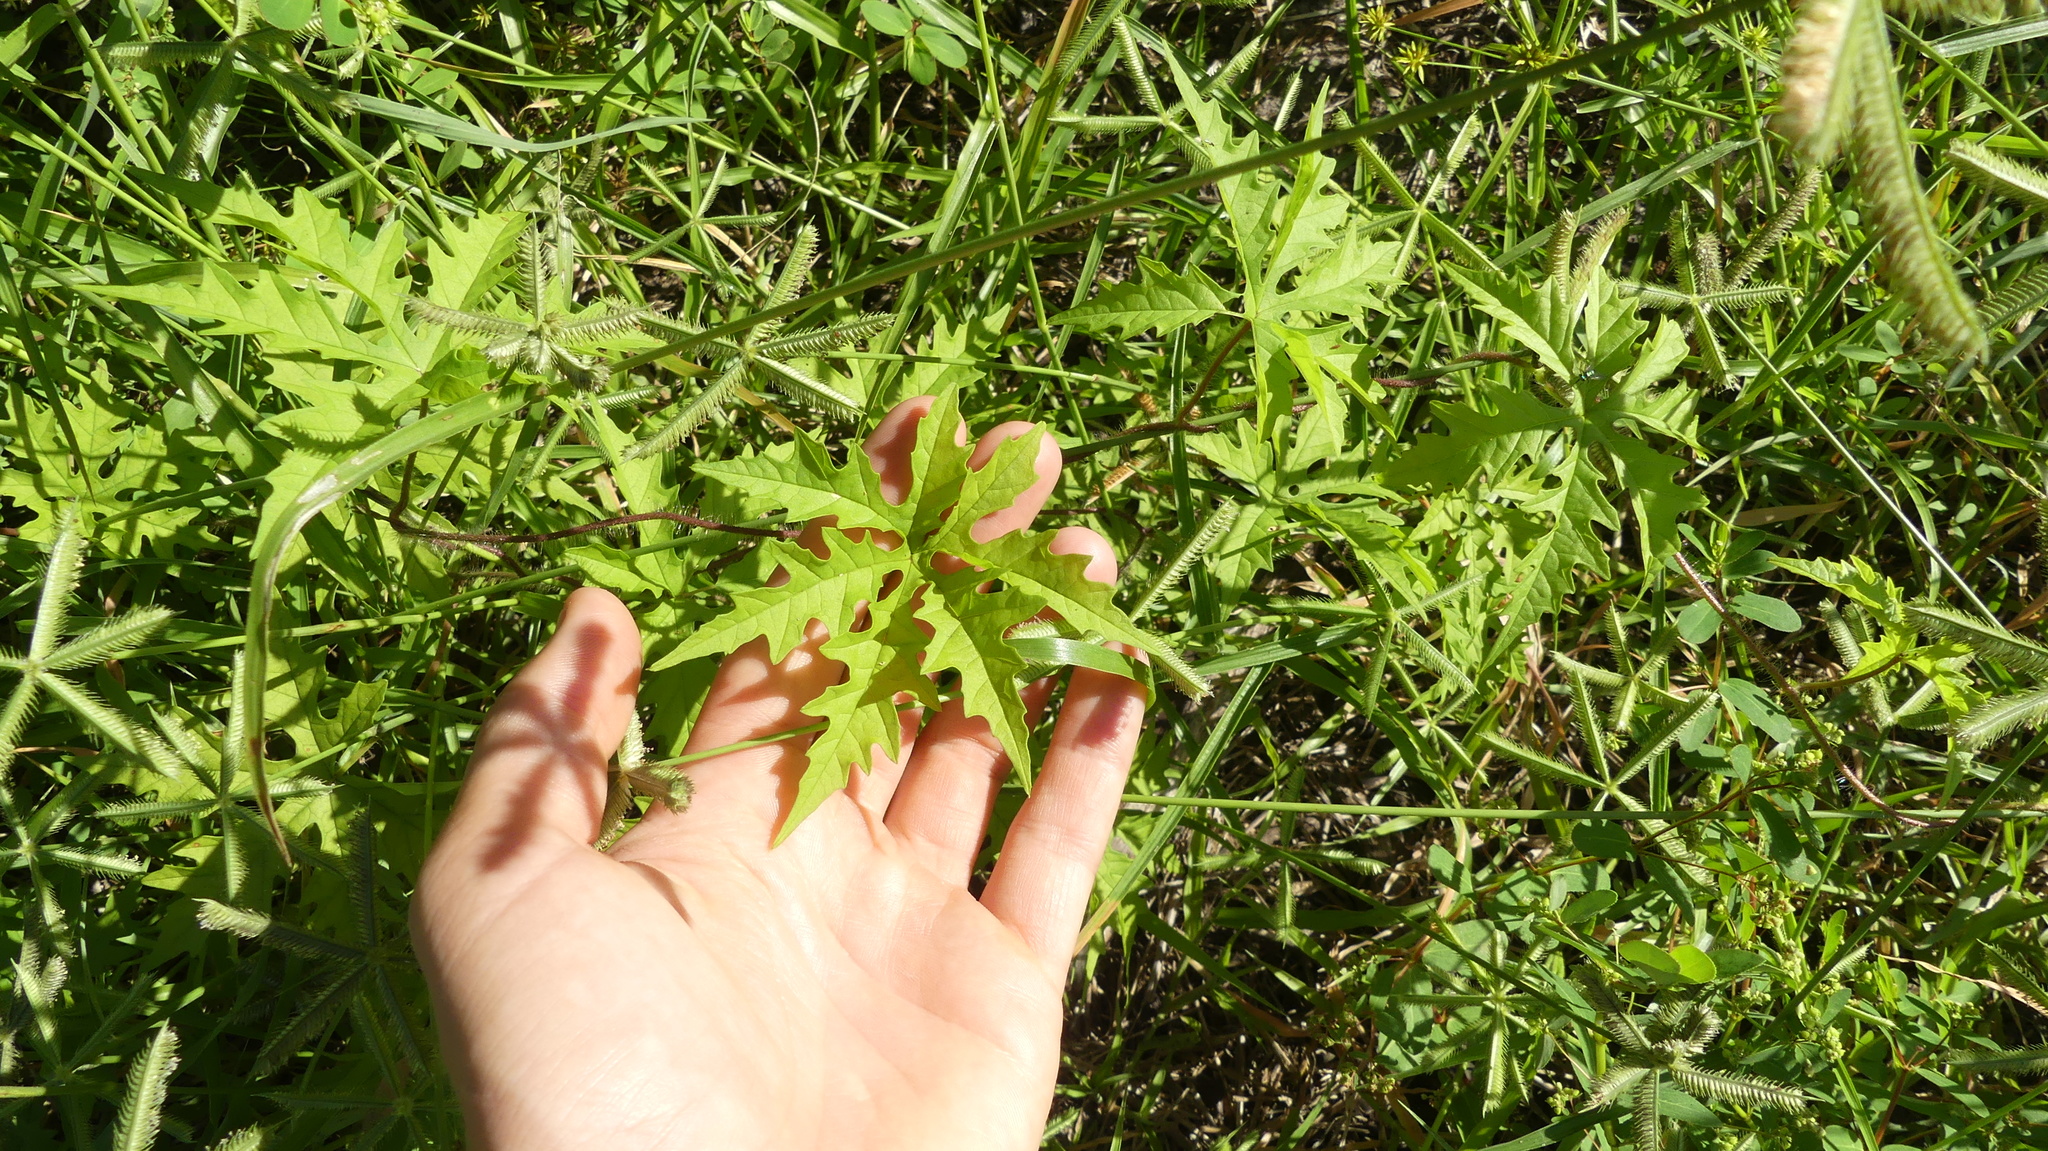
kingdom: Plantae
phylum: Tracheophyta
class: Magnoliopsida
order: Solanales
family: Convolvulaceae
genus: Distimake
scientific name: Distimake dissectus
